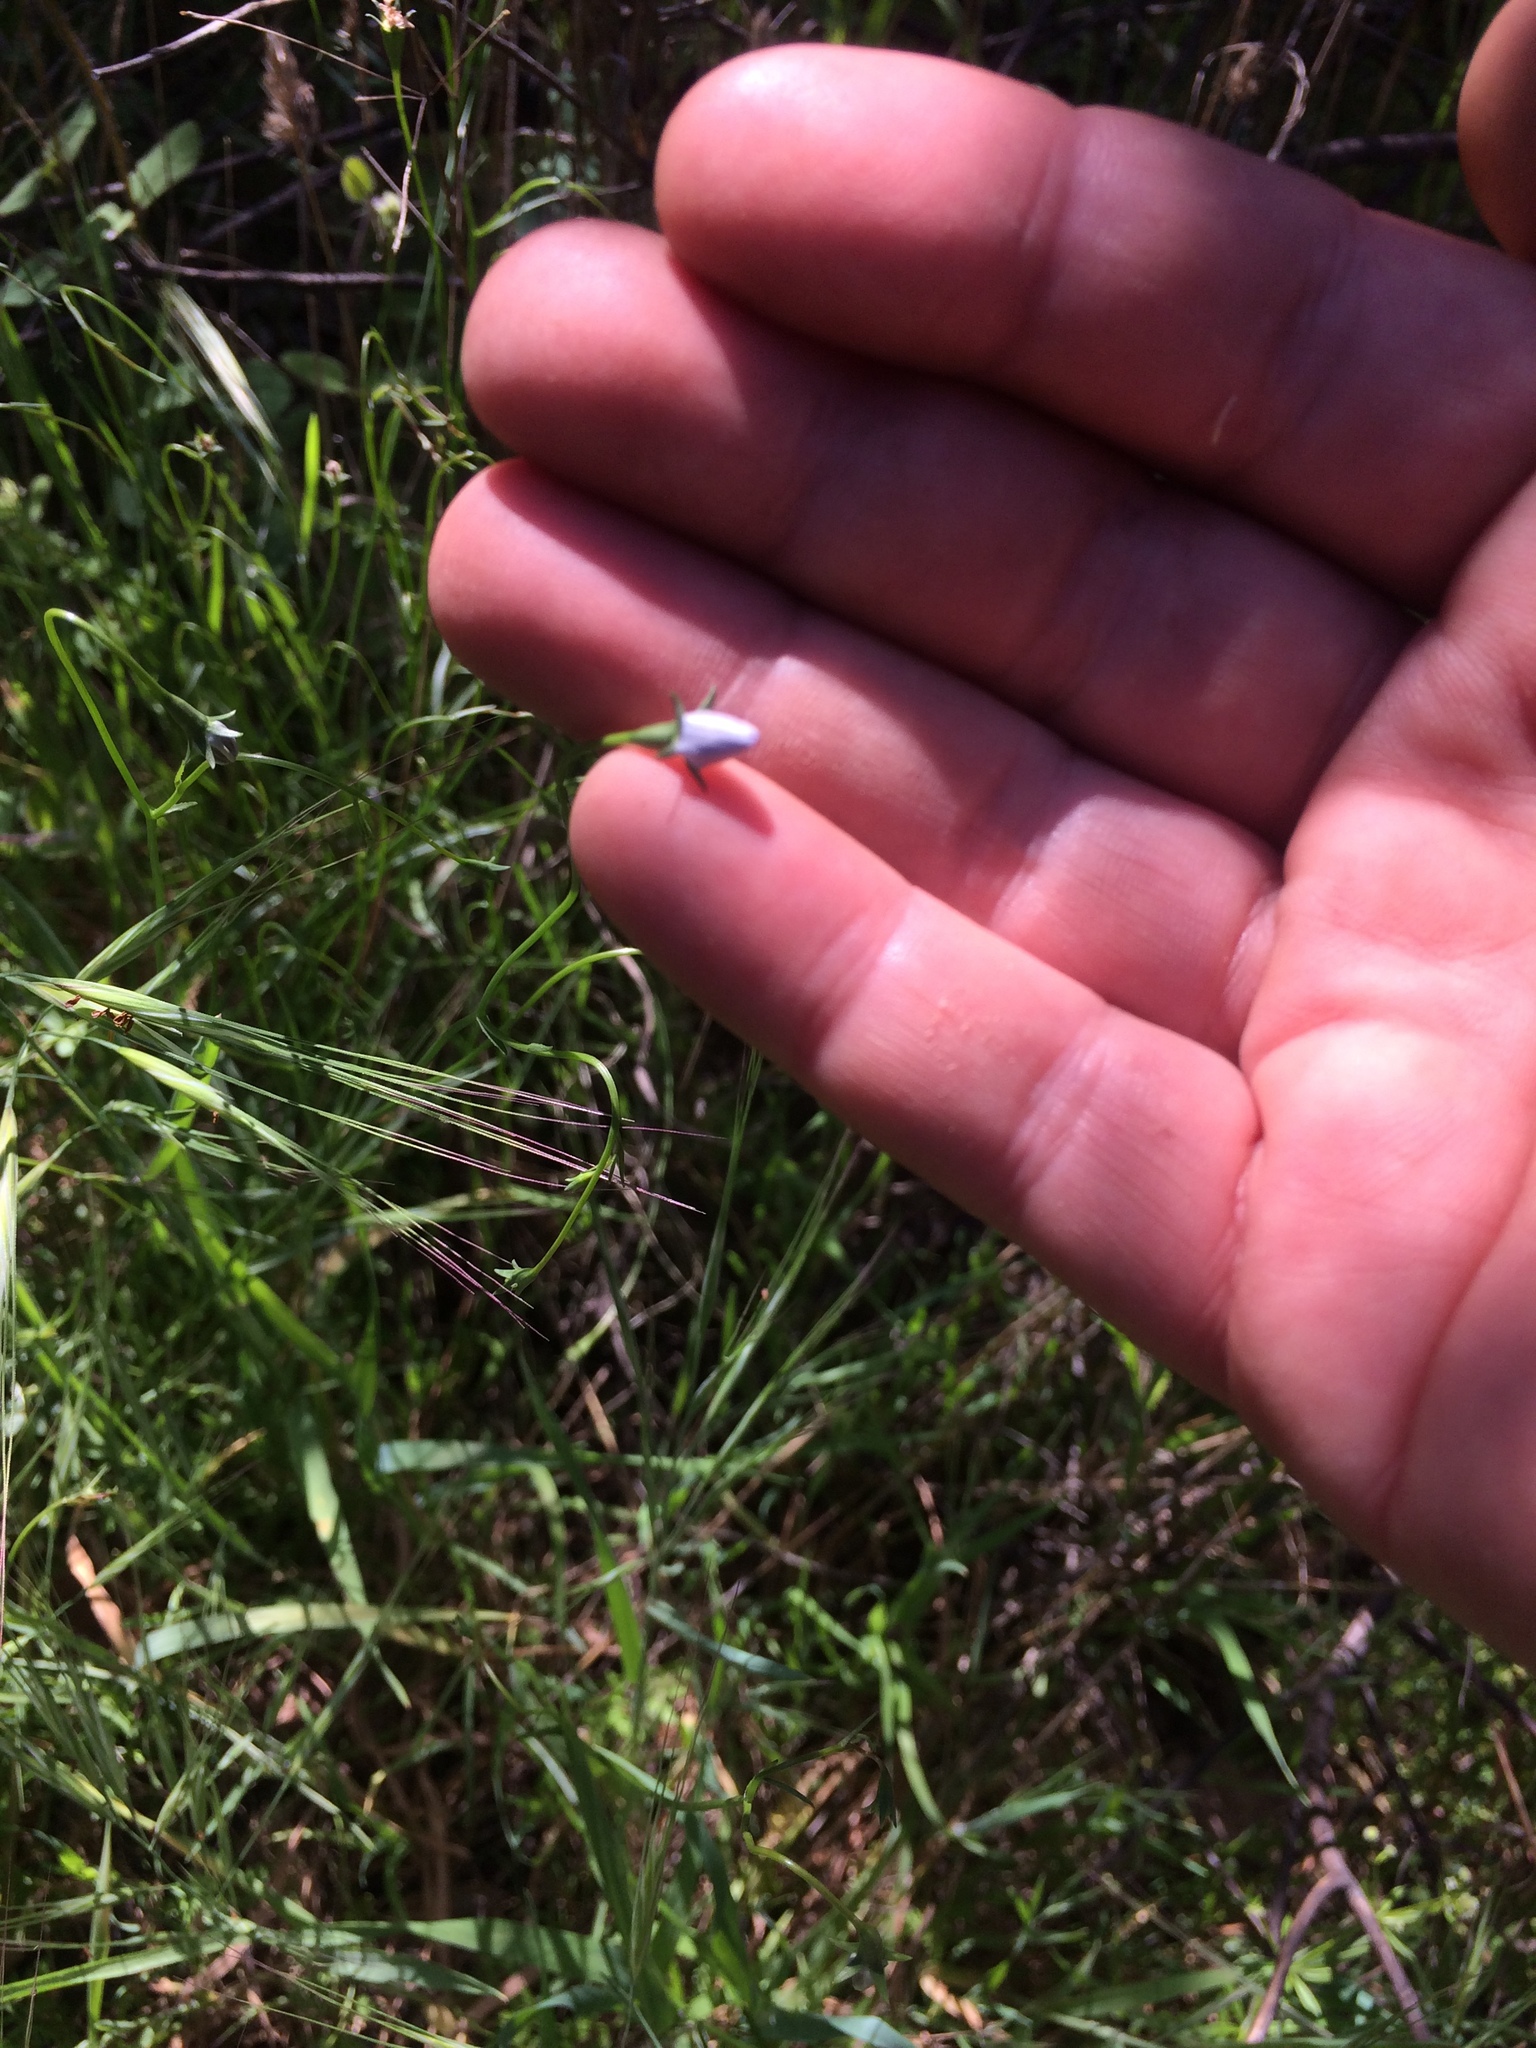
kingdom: Plantae
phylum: Tracheophyta
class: Magnoliopsida
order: Asterales
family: Campanulaceae
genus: Wahlenbergia
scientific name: Wahlenbergia marginata
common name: Southern rockbell
